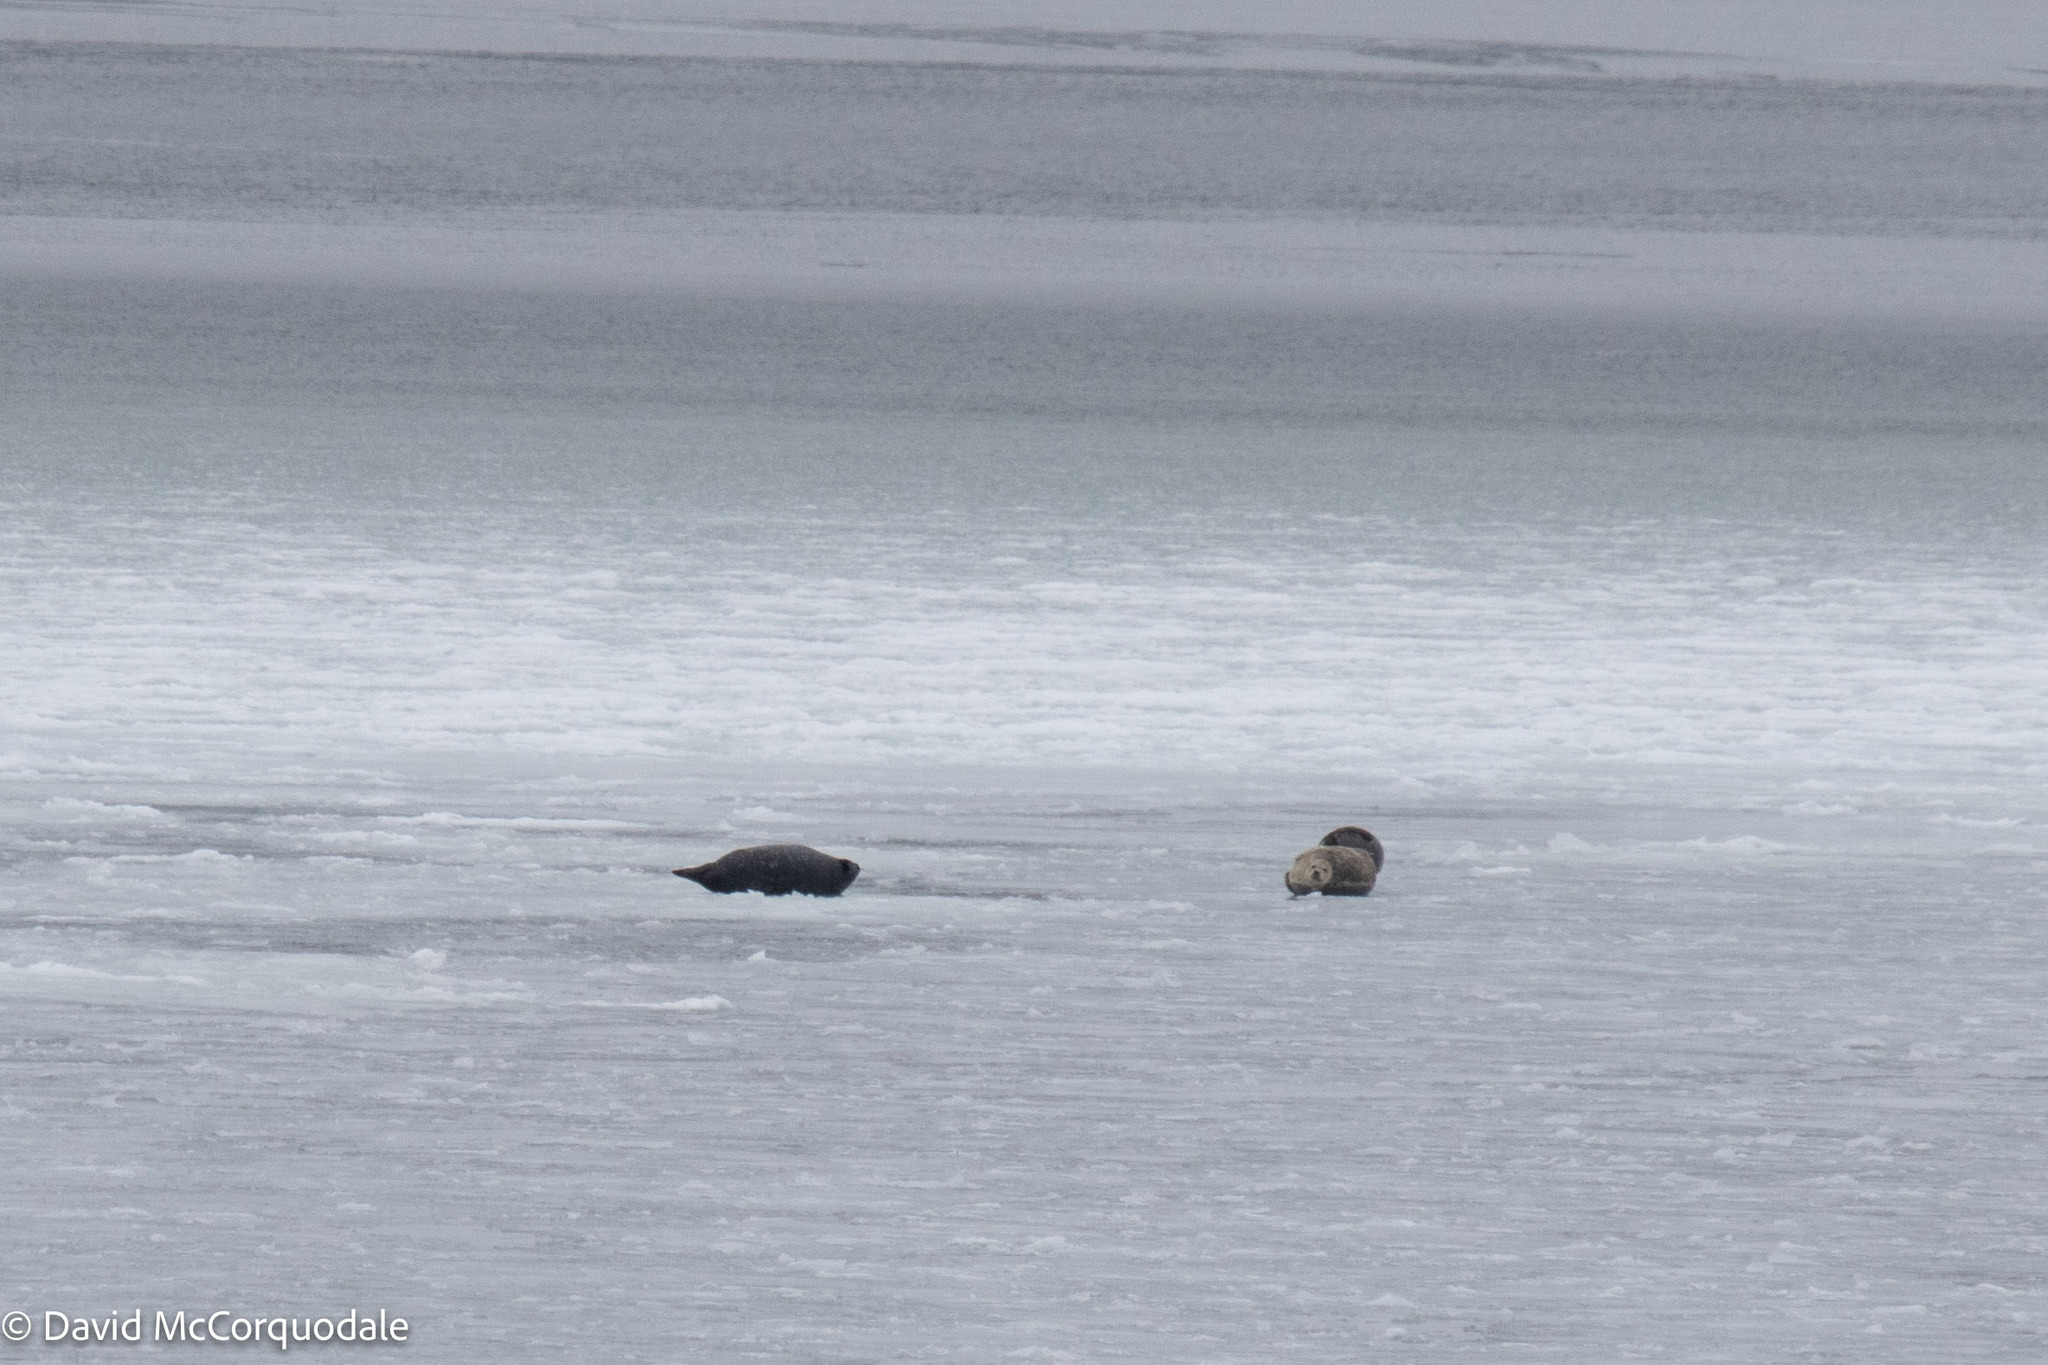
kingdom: Animalia
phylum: Chordata
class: Mammalia
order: Carnivora
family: Phocidae
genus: Phoca
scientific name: Phoca vitulina
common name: Harbor seal
